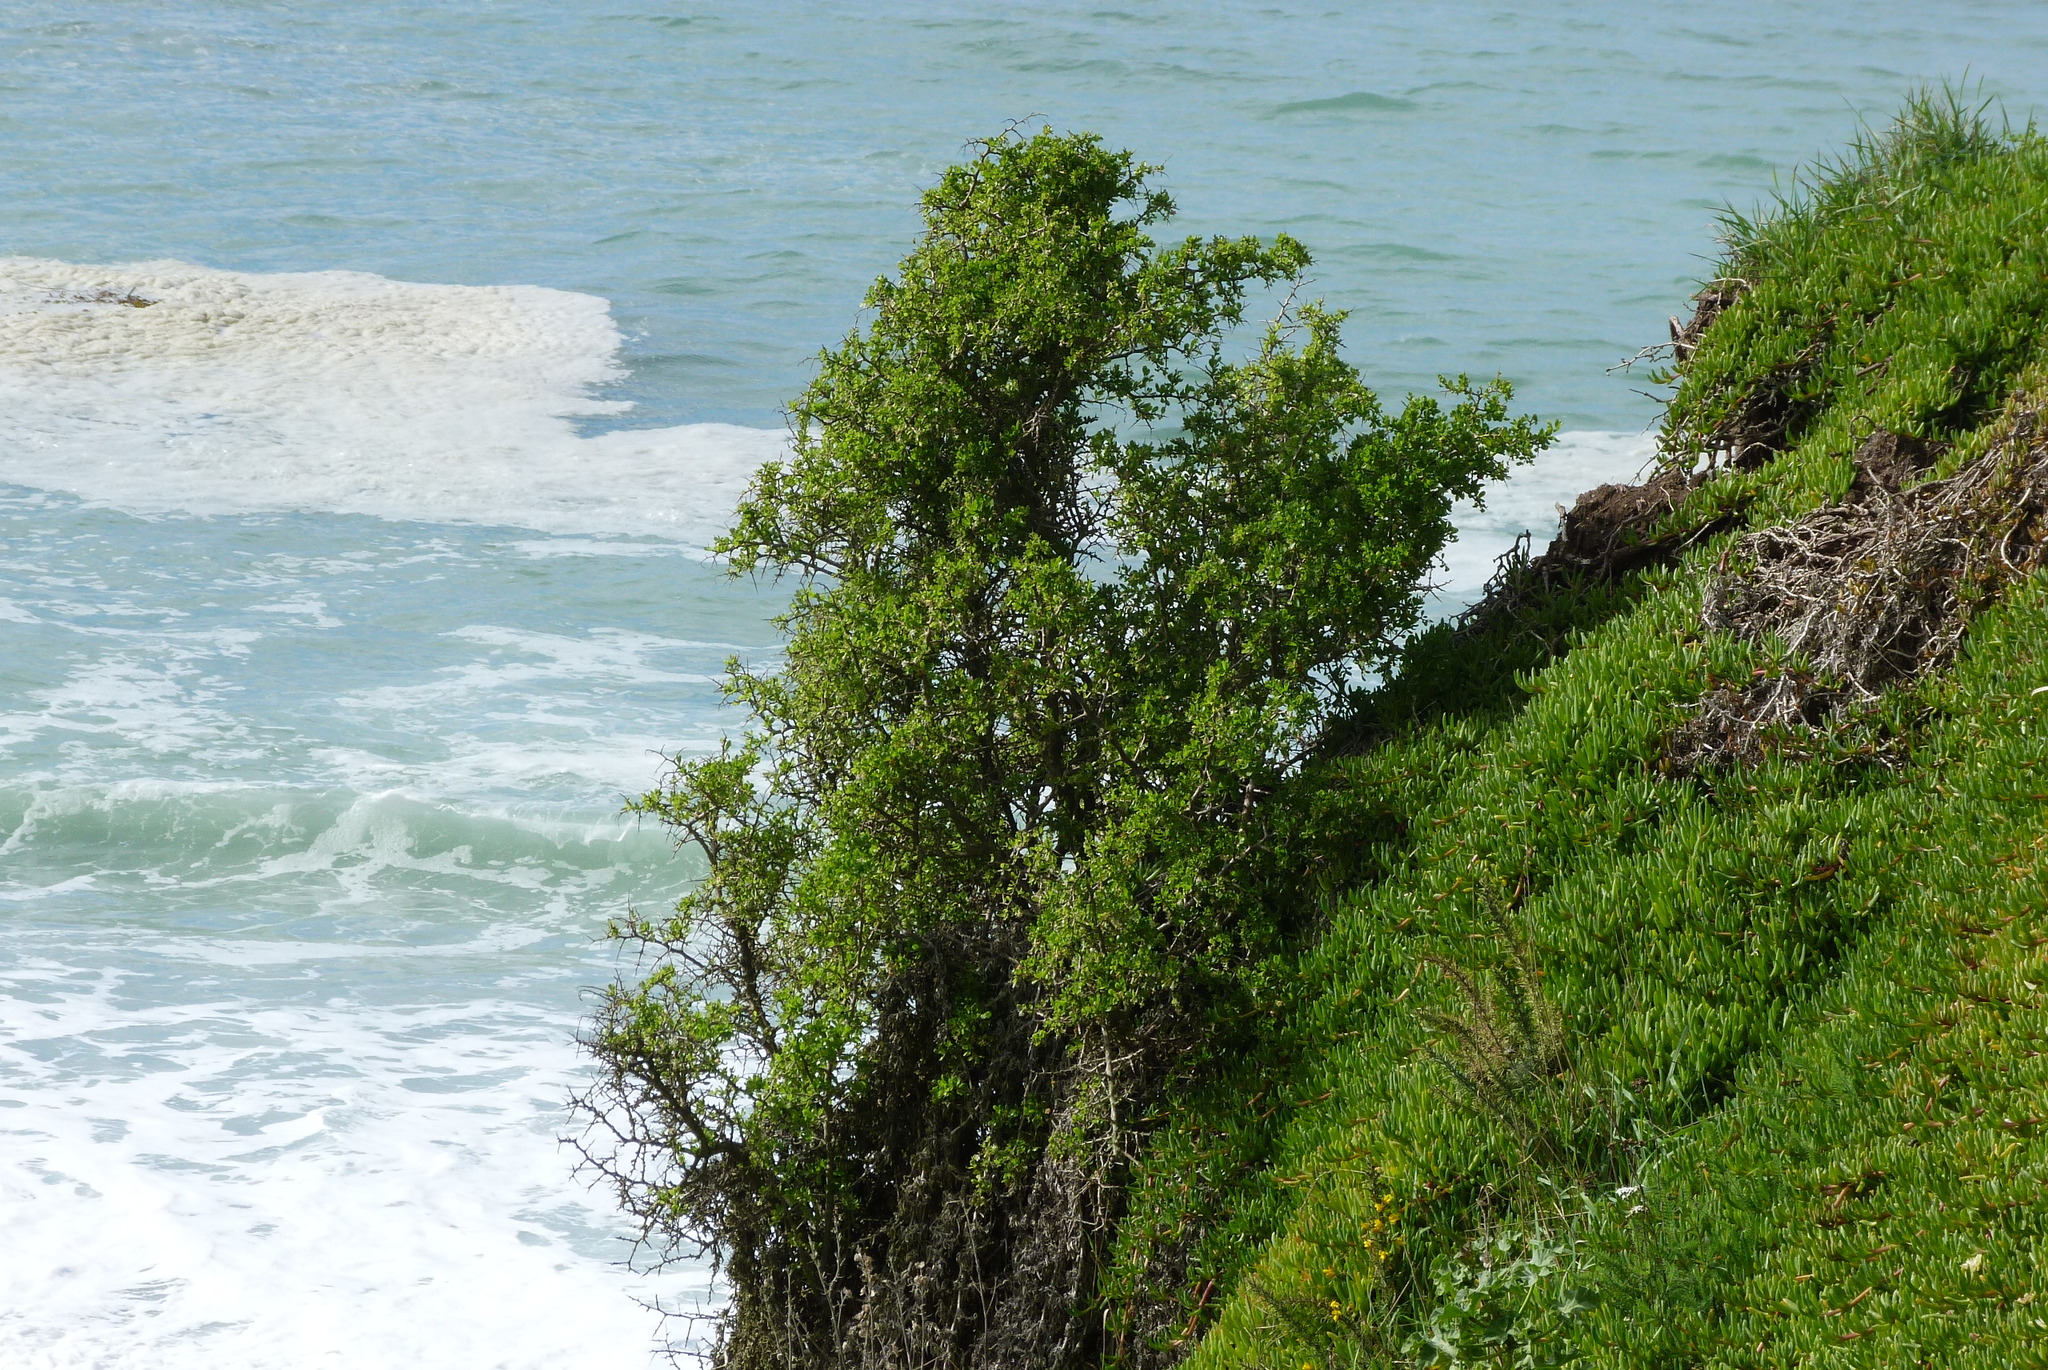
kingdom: Plantae
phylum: Tracheophyta
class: Magnoliopsida
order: Solanales
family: Solanaceae
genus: Lycium
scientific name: Lycium ferocissimum
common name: African boxthorn
